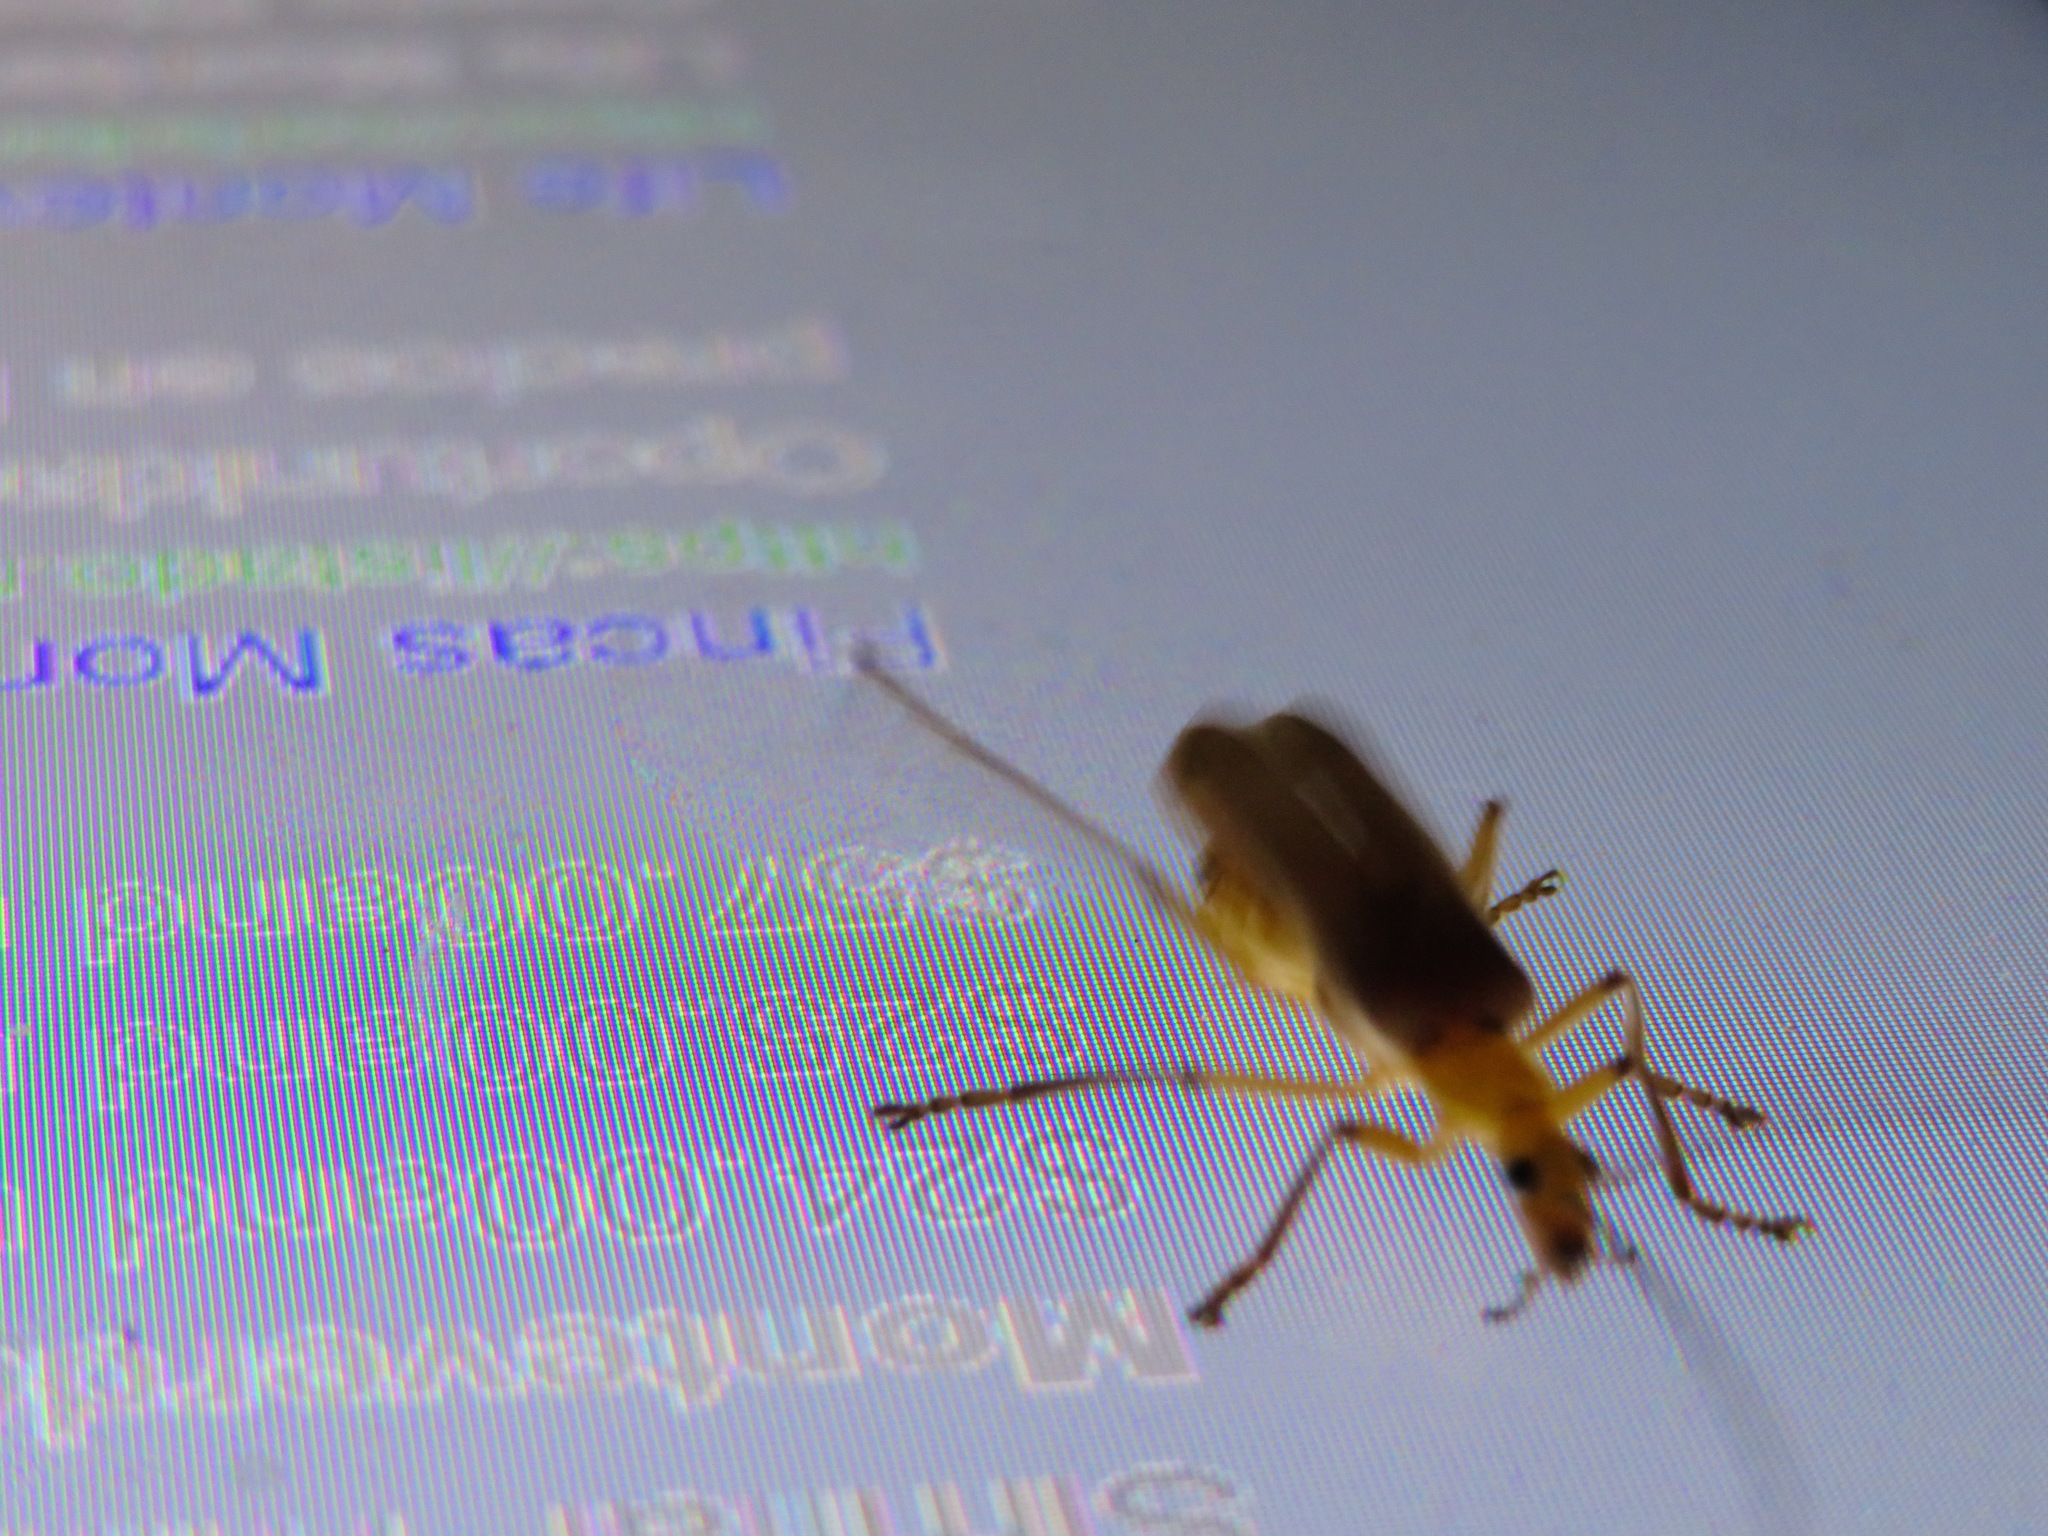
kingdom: Animalia
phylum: Arthropoda
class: Insecta
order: Coleoptera
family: Cantharidae
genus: Chauliognathus
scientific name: Chauliognathus
